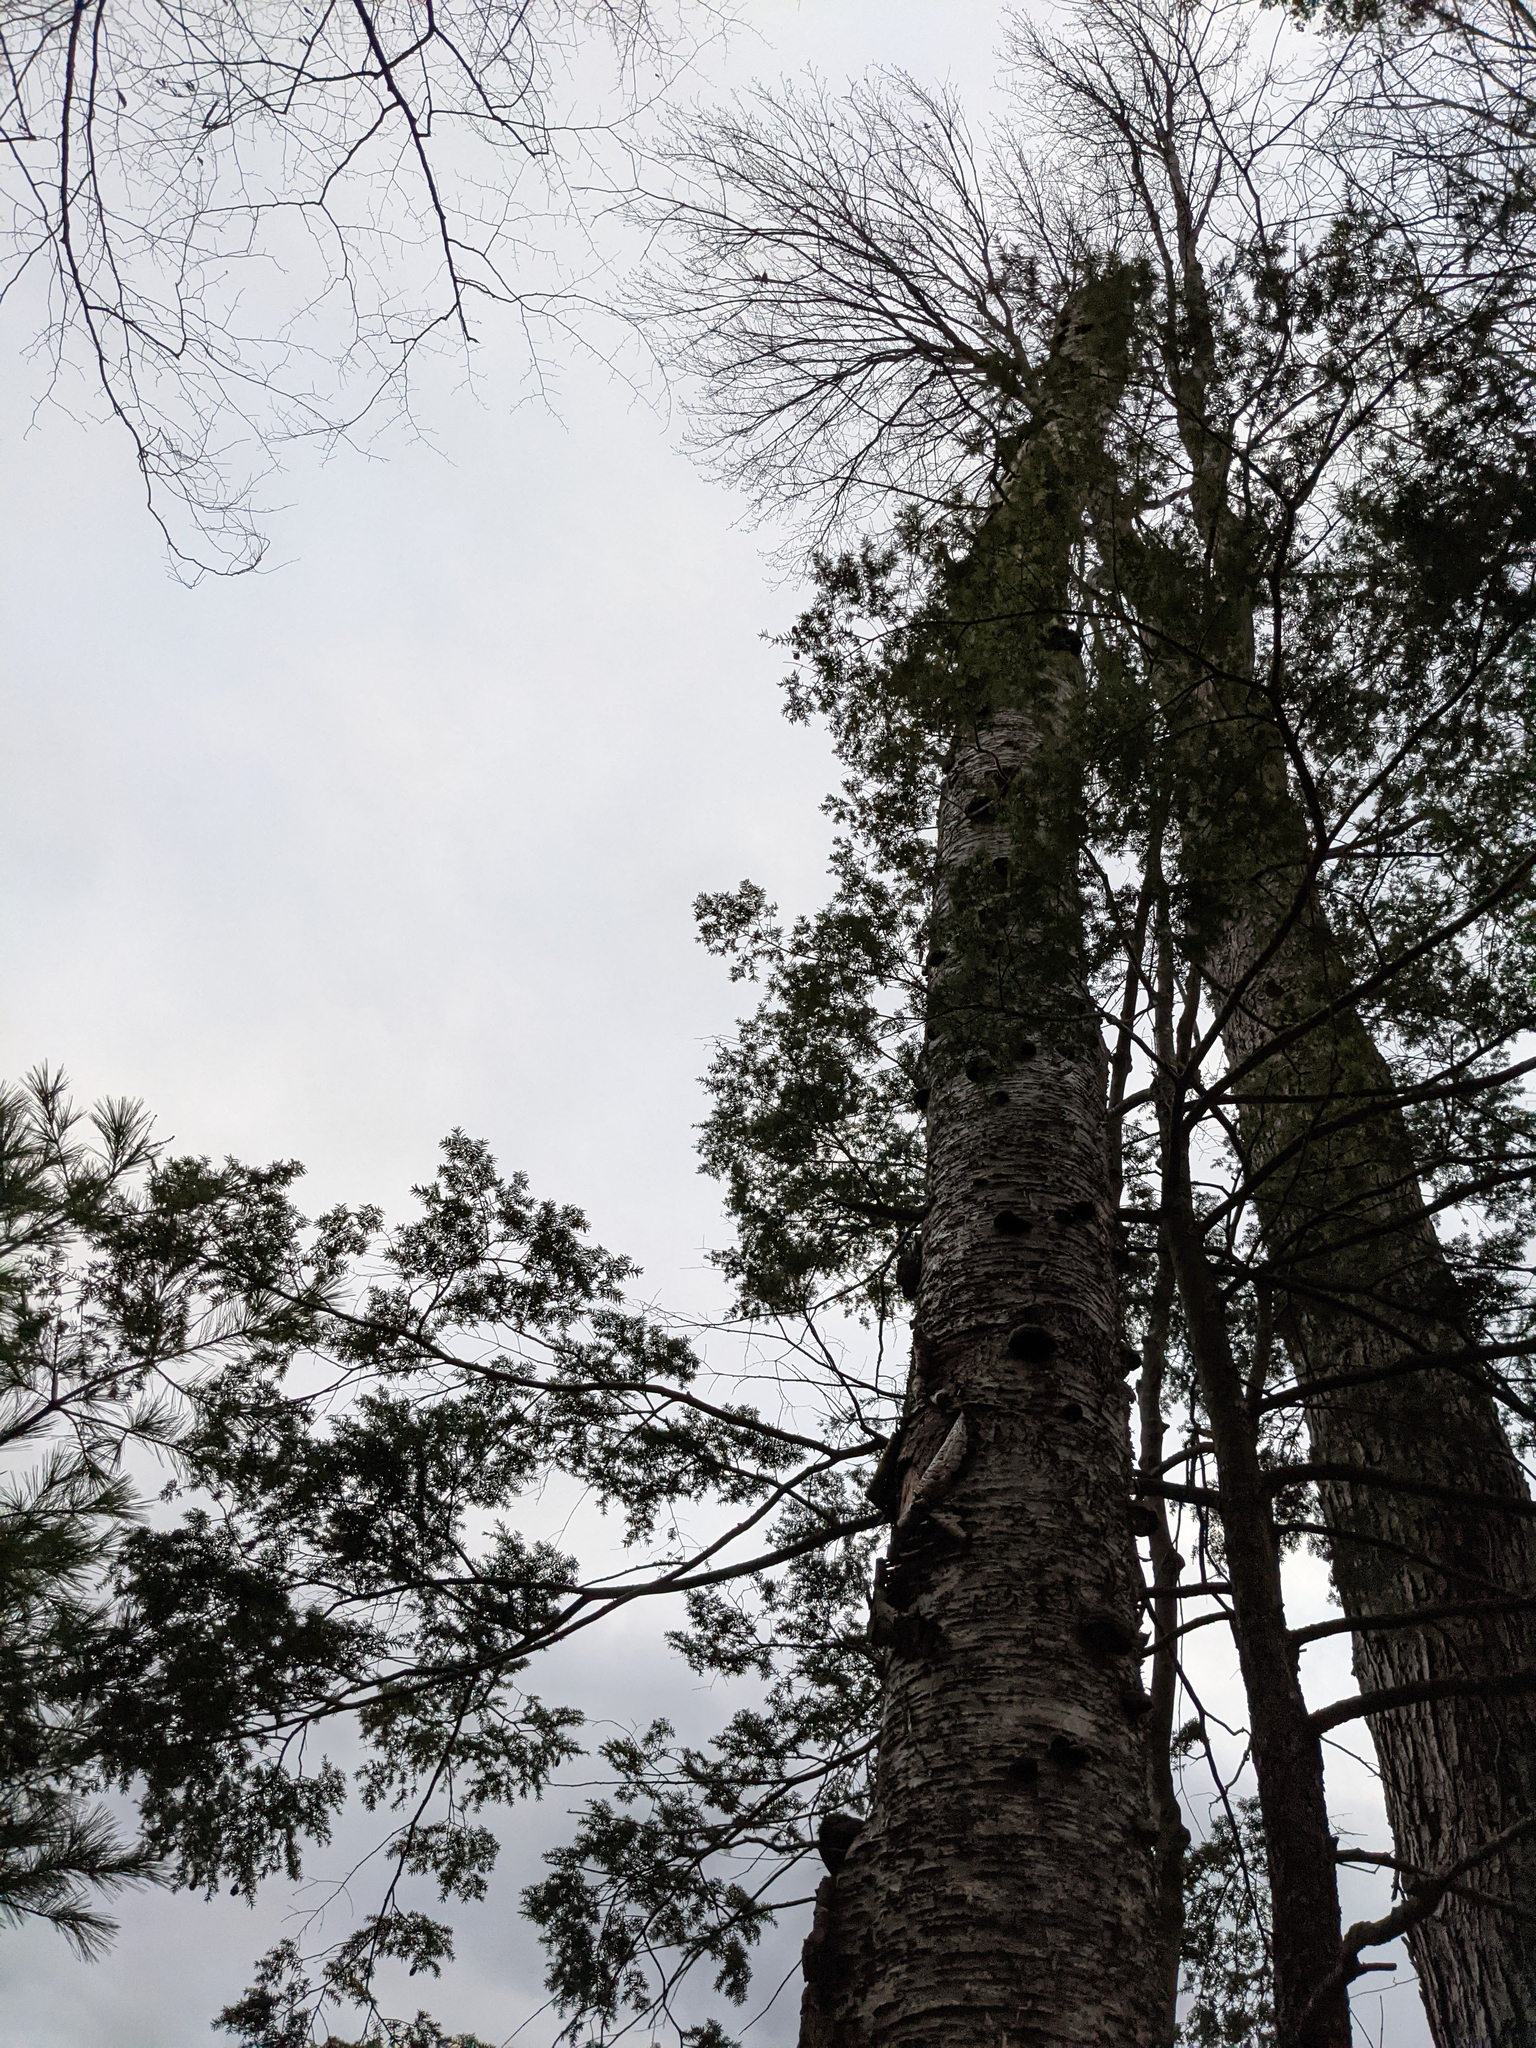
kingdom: Plantae
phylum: Tracheophyta
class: Magnoliopsida
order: Fagales
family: Betulaceae
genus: Betula
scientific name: Betula alleghaniensis
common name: Yellow birch
